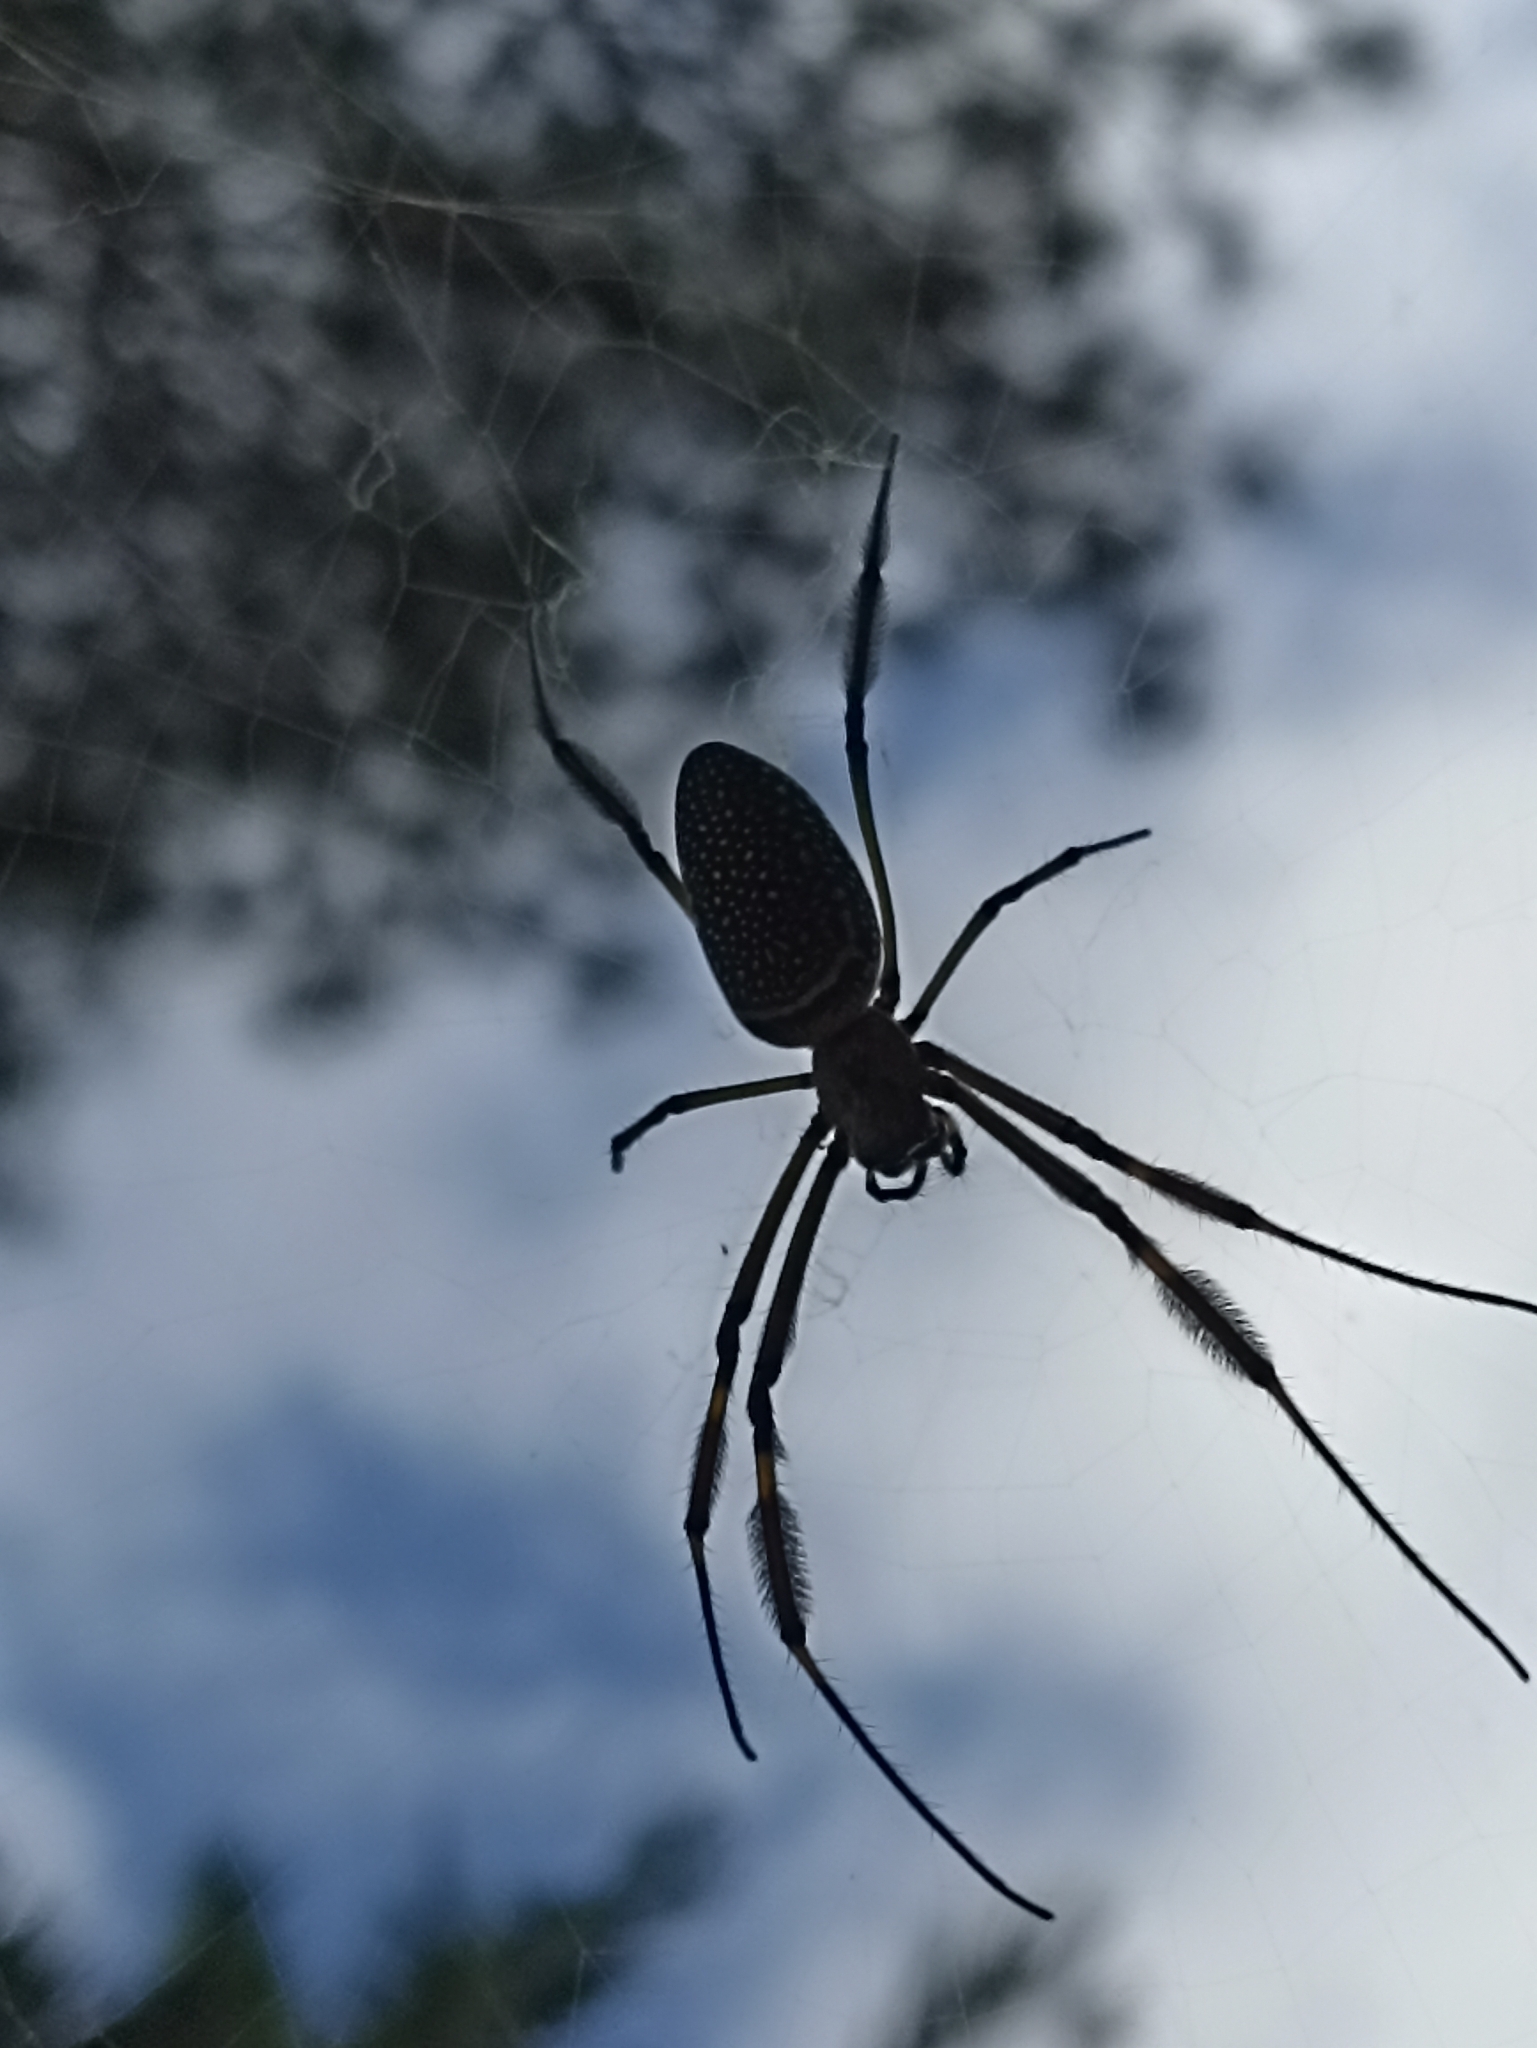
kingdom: Animalia
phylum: Arthropoda
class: Arachnida
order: Araneae
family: Araneidae
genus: Trichonephila
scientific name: Trichonephila clavipes
